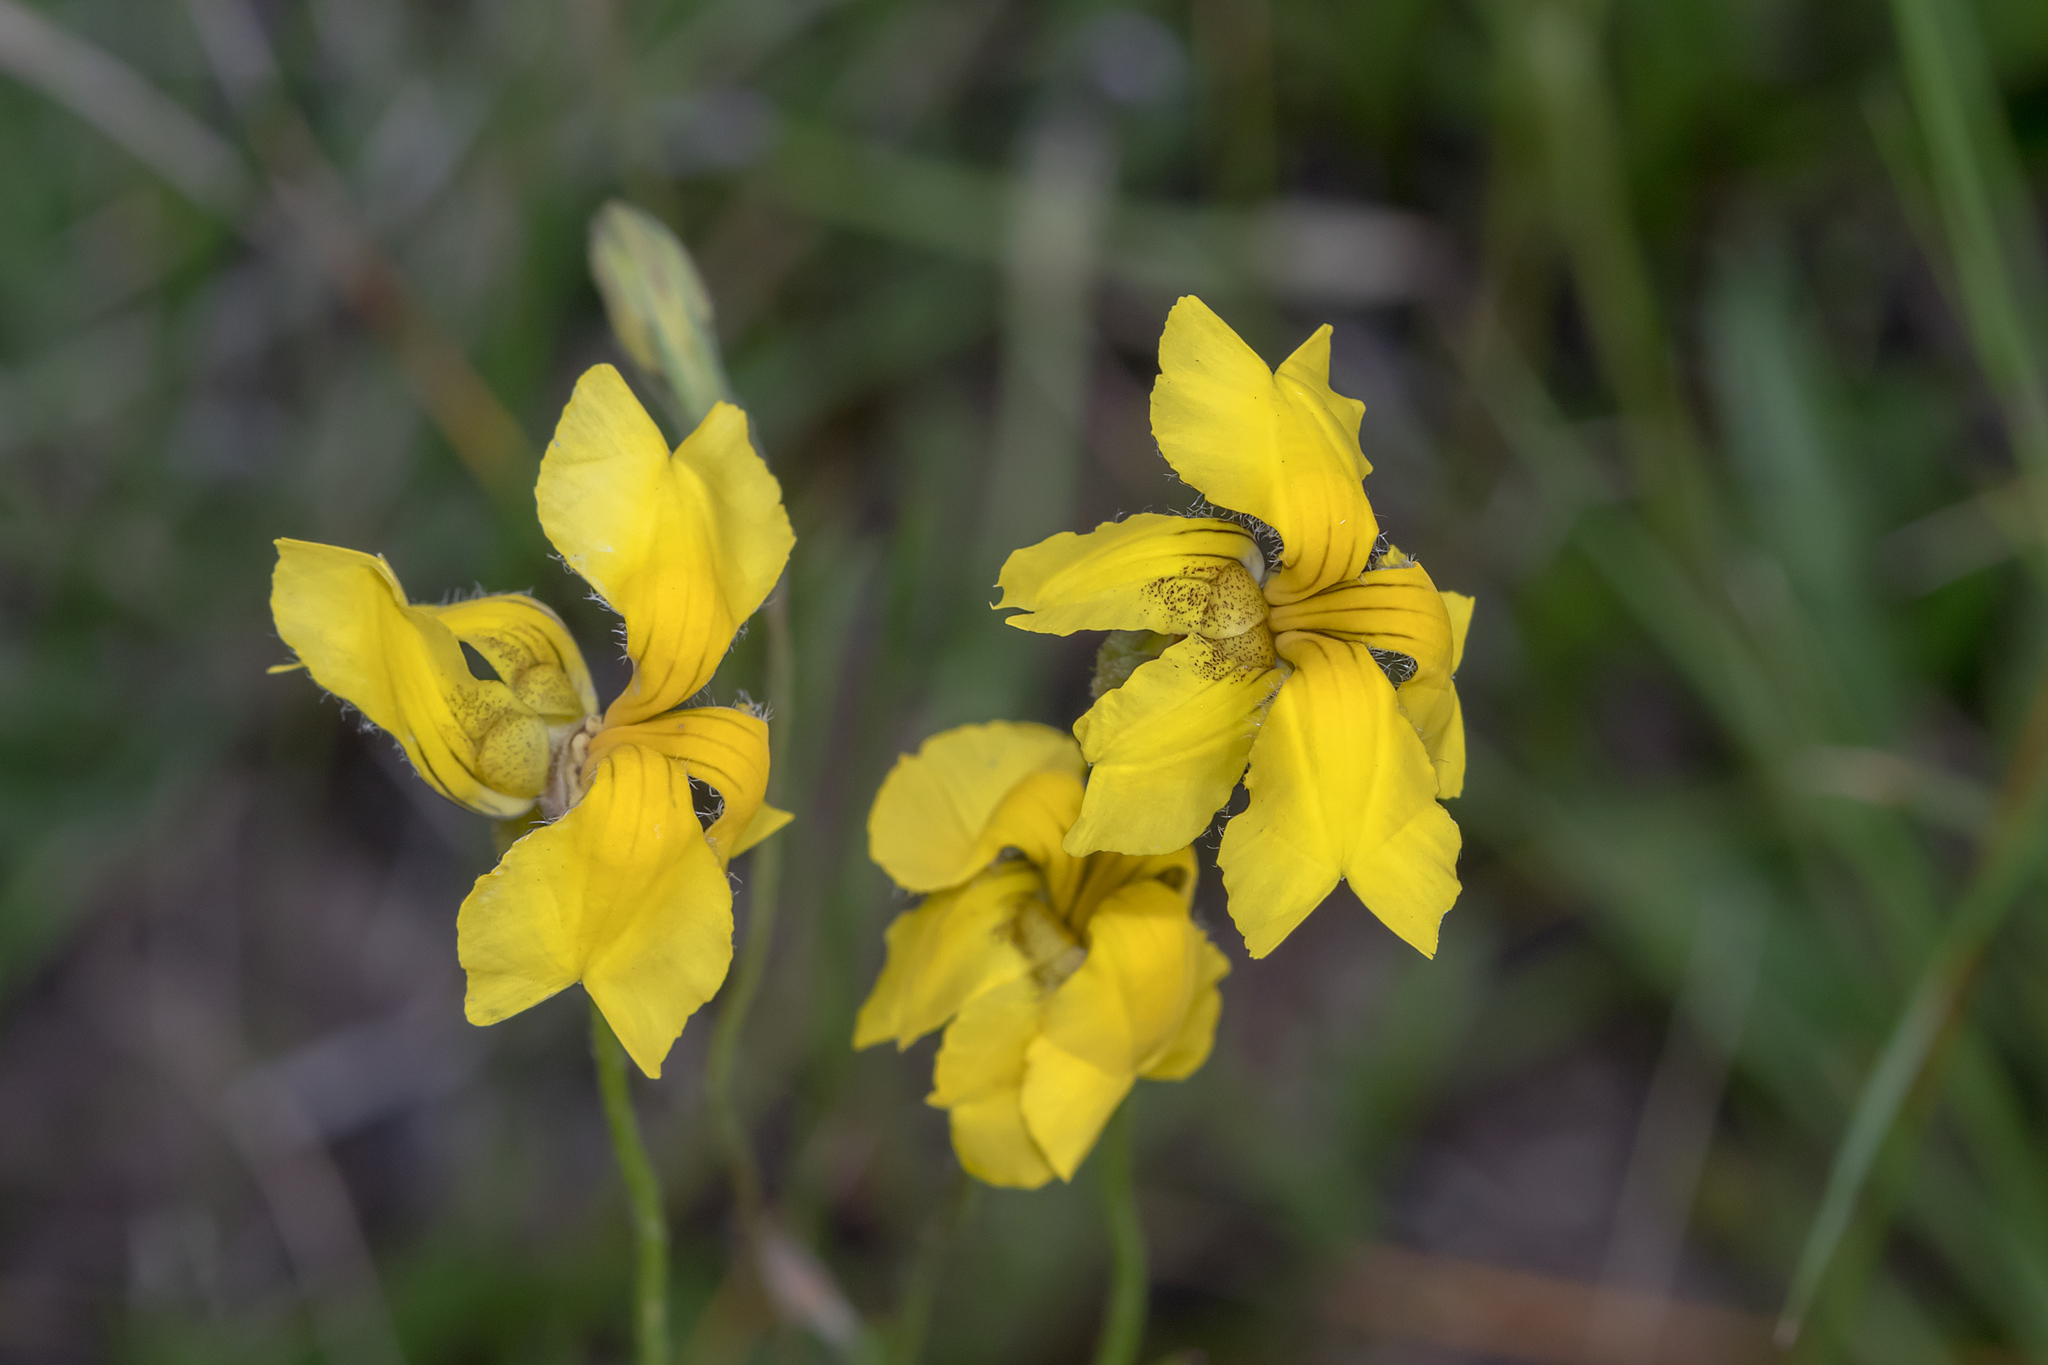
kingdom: Plantae
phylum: Tracheophyta
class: Magnoliopsida
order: Asterales
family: Goodeniaceae
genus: Goodenia
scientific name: Goodenia pinnatifida
